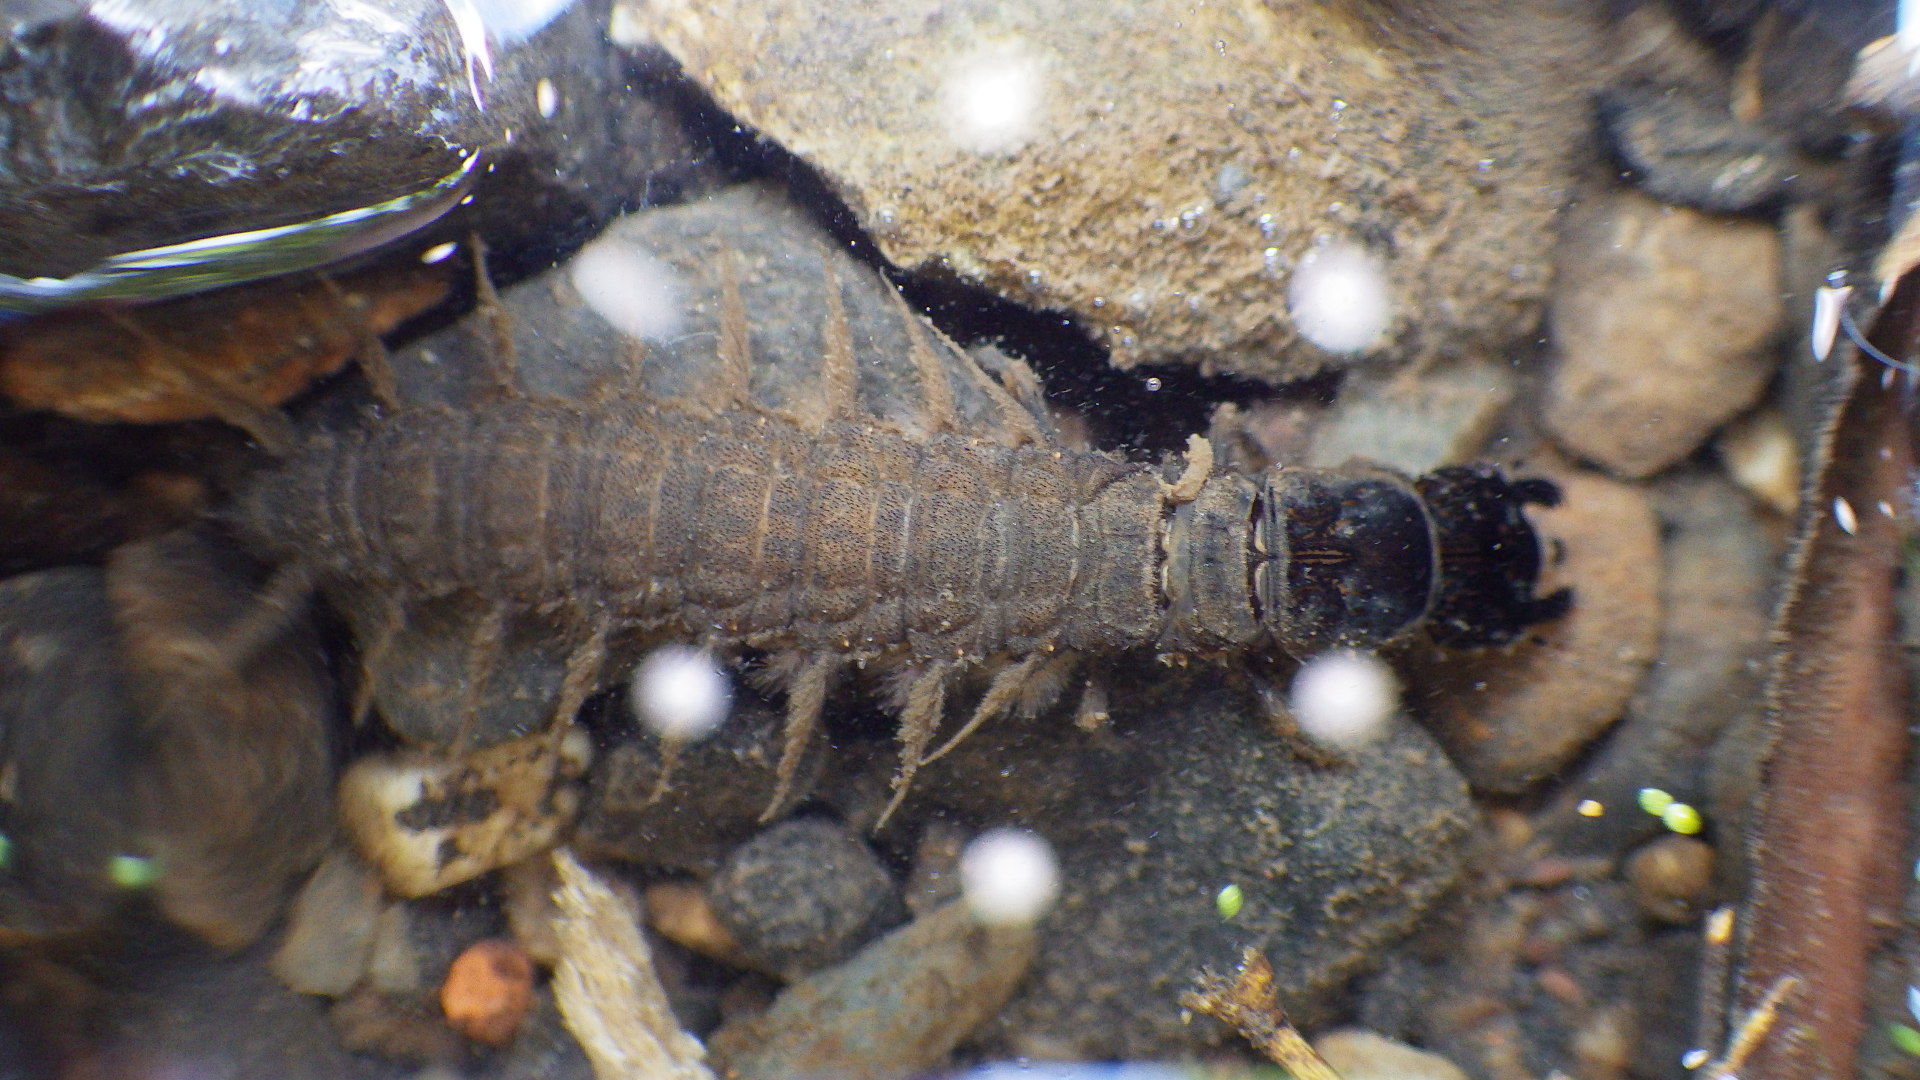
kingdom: Animalia
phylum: Arthropoda
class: Insecta
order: Megaloptera
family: Corydalidae
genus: Corydalus
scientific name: Corydalus cornutus
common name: Dobsonfly
